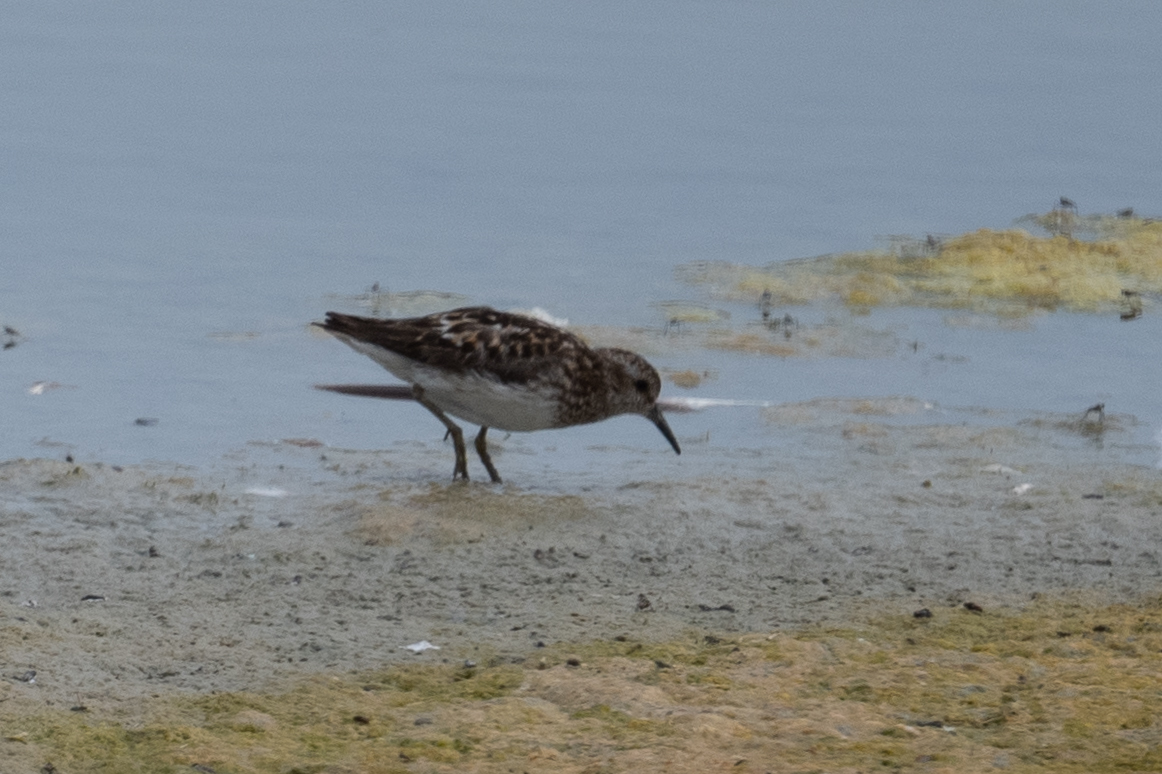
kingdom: Animalia
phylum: Chordata
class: Aves
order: Charadriiformes
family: Scolopacidae
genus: Calidris
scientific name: Calidris minutilla
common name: Least sandpiper
